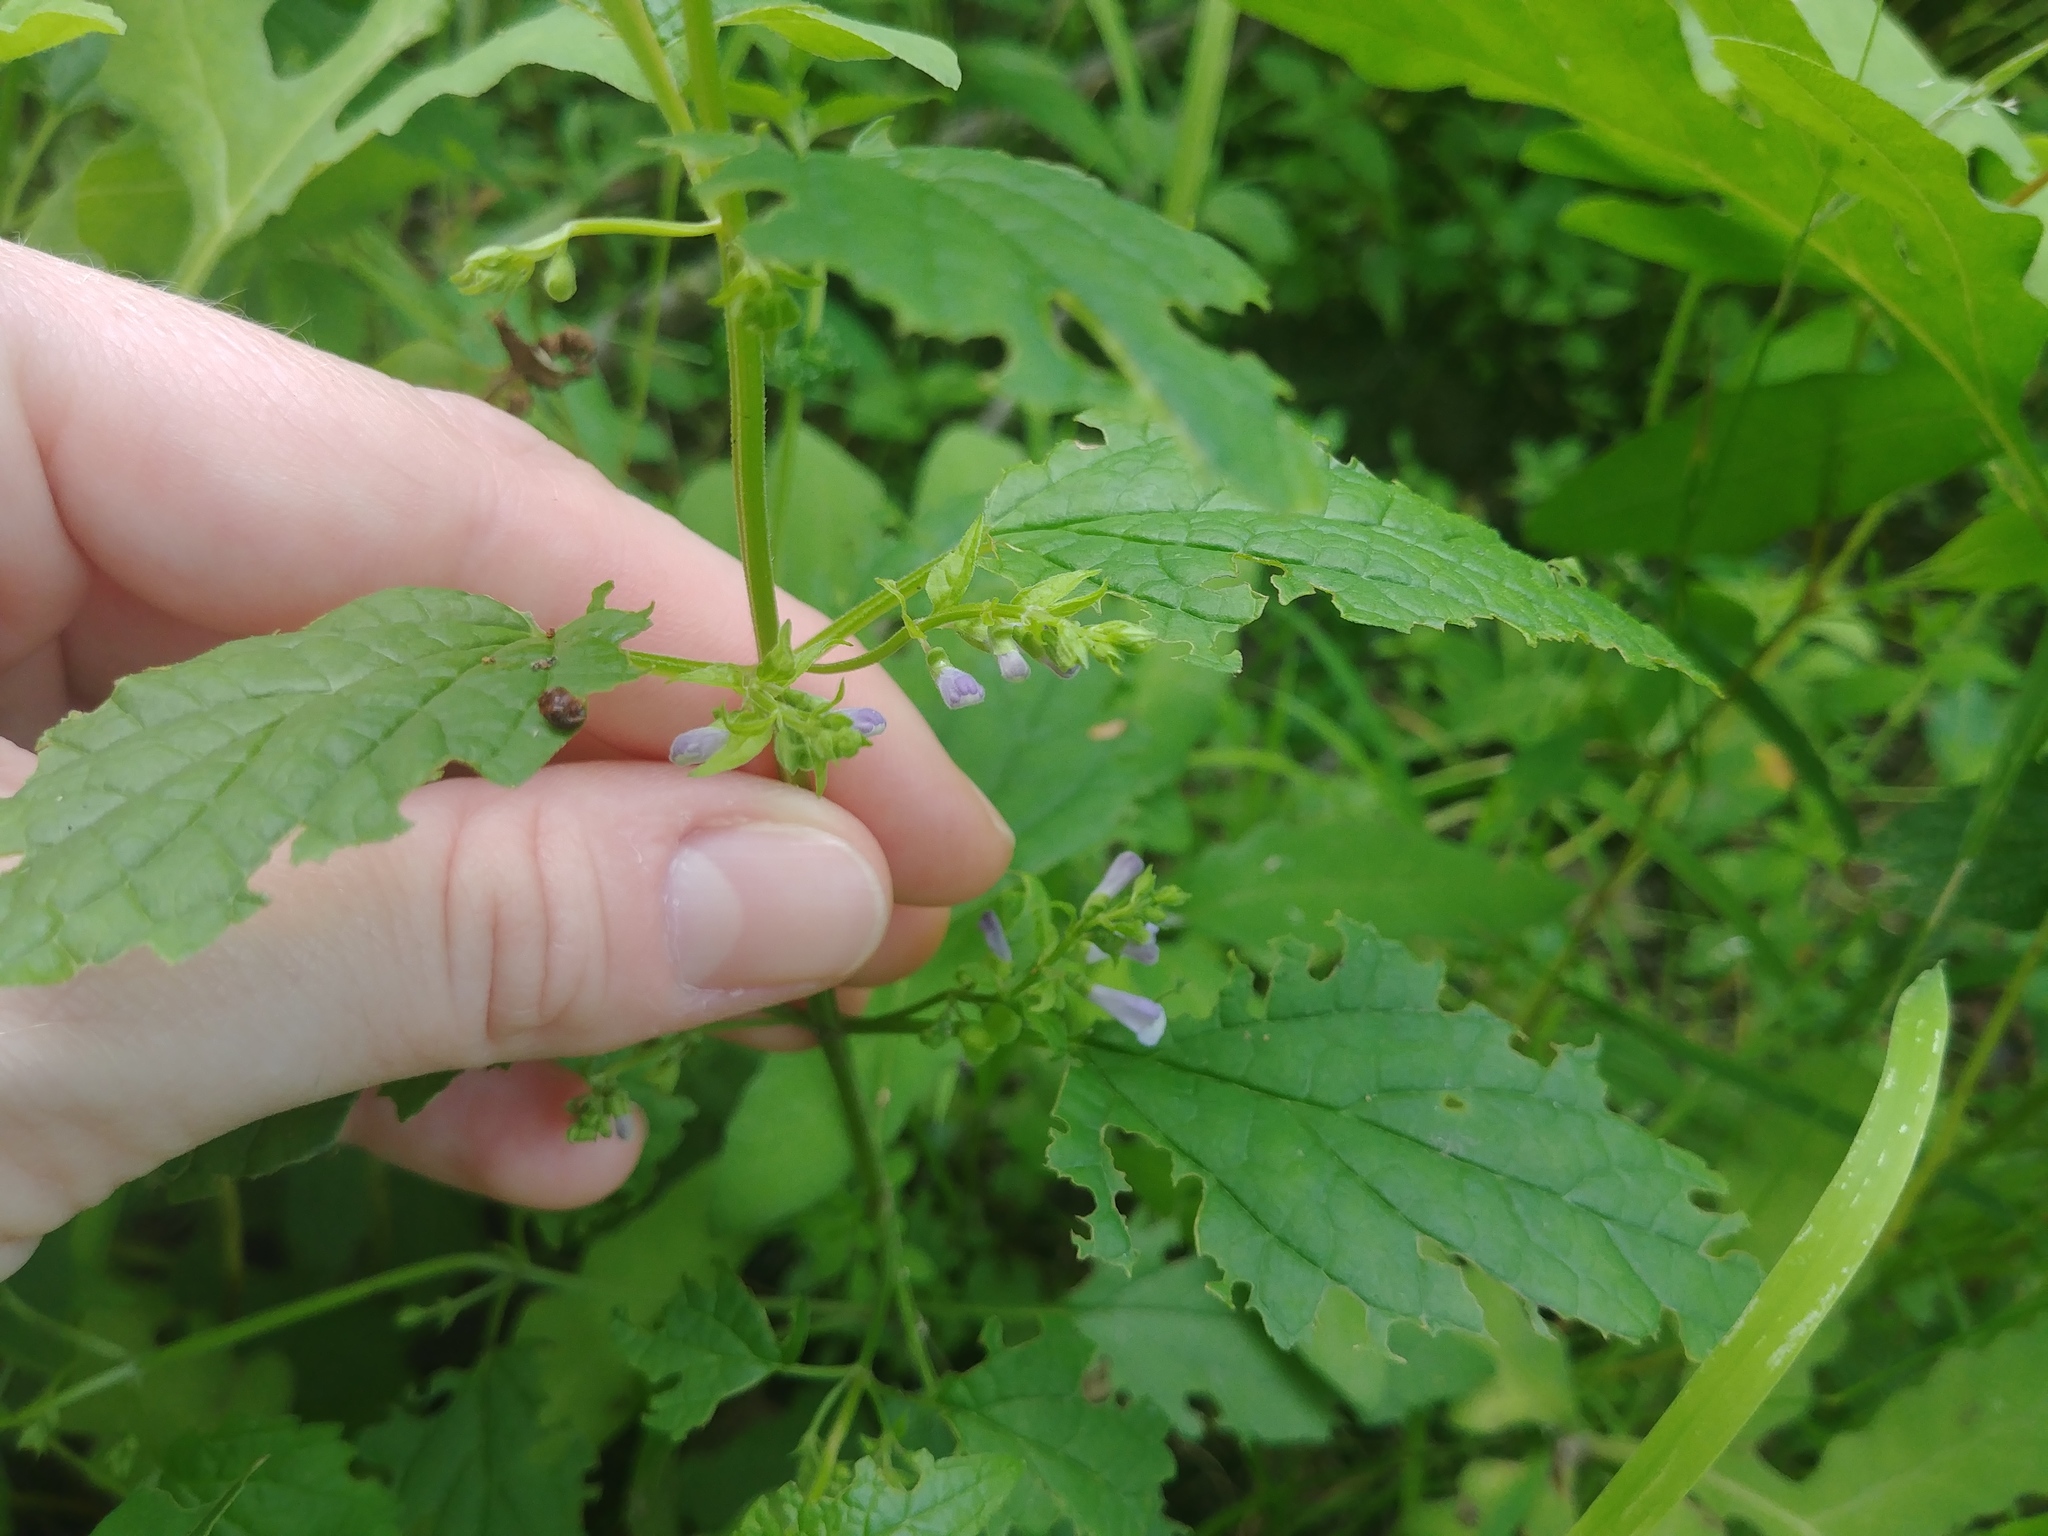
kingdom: Plantae
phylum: Tracheophyta
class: Magnoliopsida
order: Lamiales
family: Lamiaceae
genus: Scutellaria
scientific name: Scutellaria lateriflora
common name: Blue skullcap
